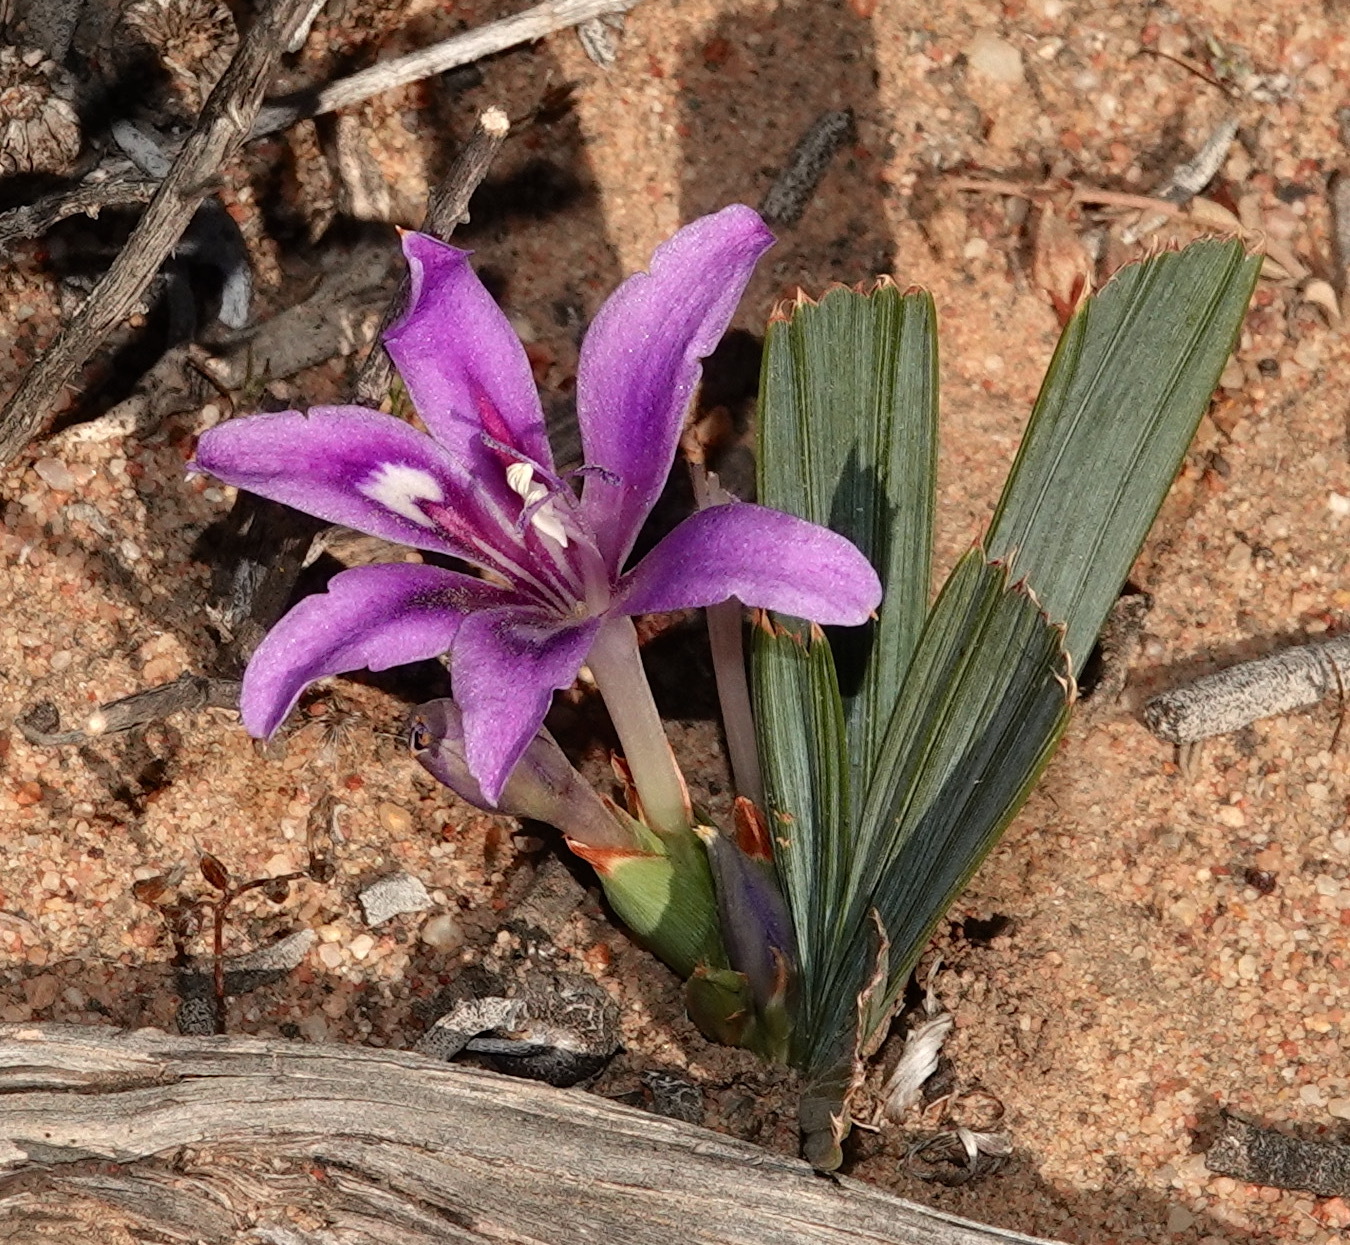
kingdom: Plantae
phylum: Tracheophyta
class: Liliopsida
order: Asparagales
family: Iridaceae
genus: Babiana
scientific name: Babiana cuneata
